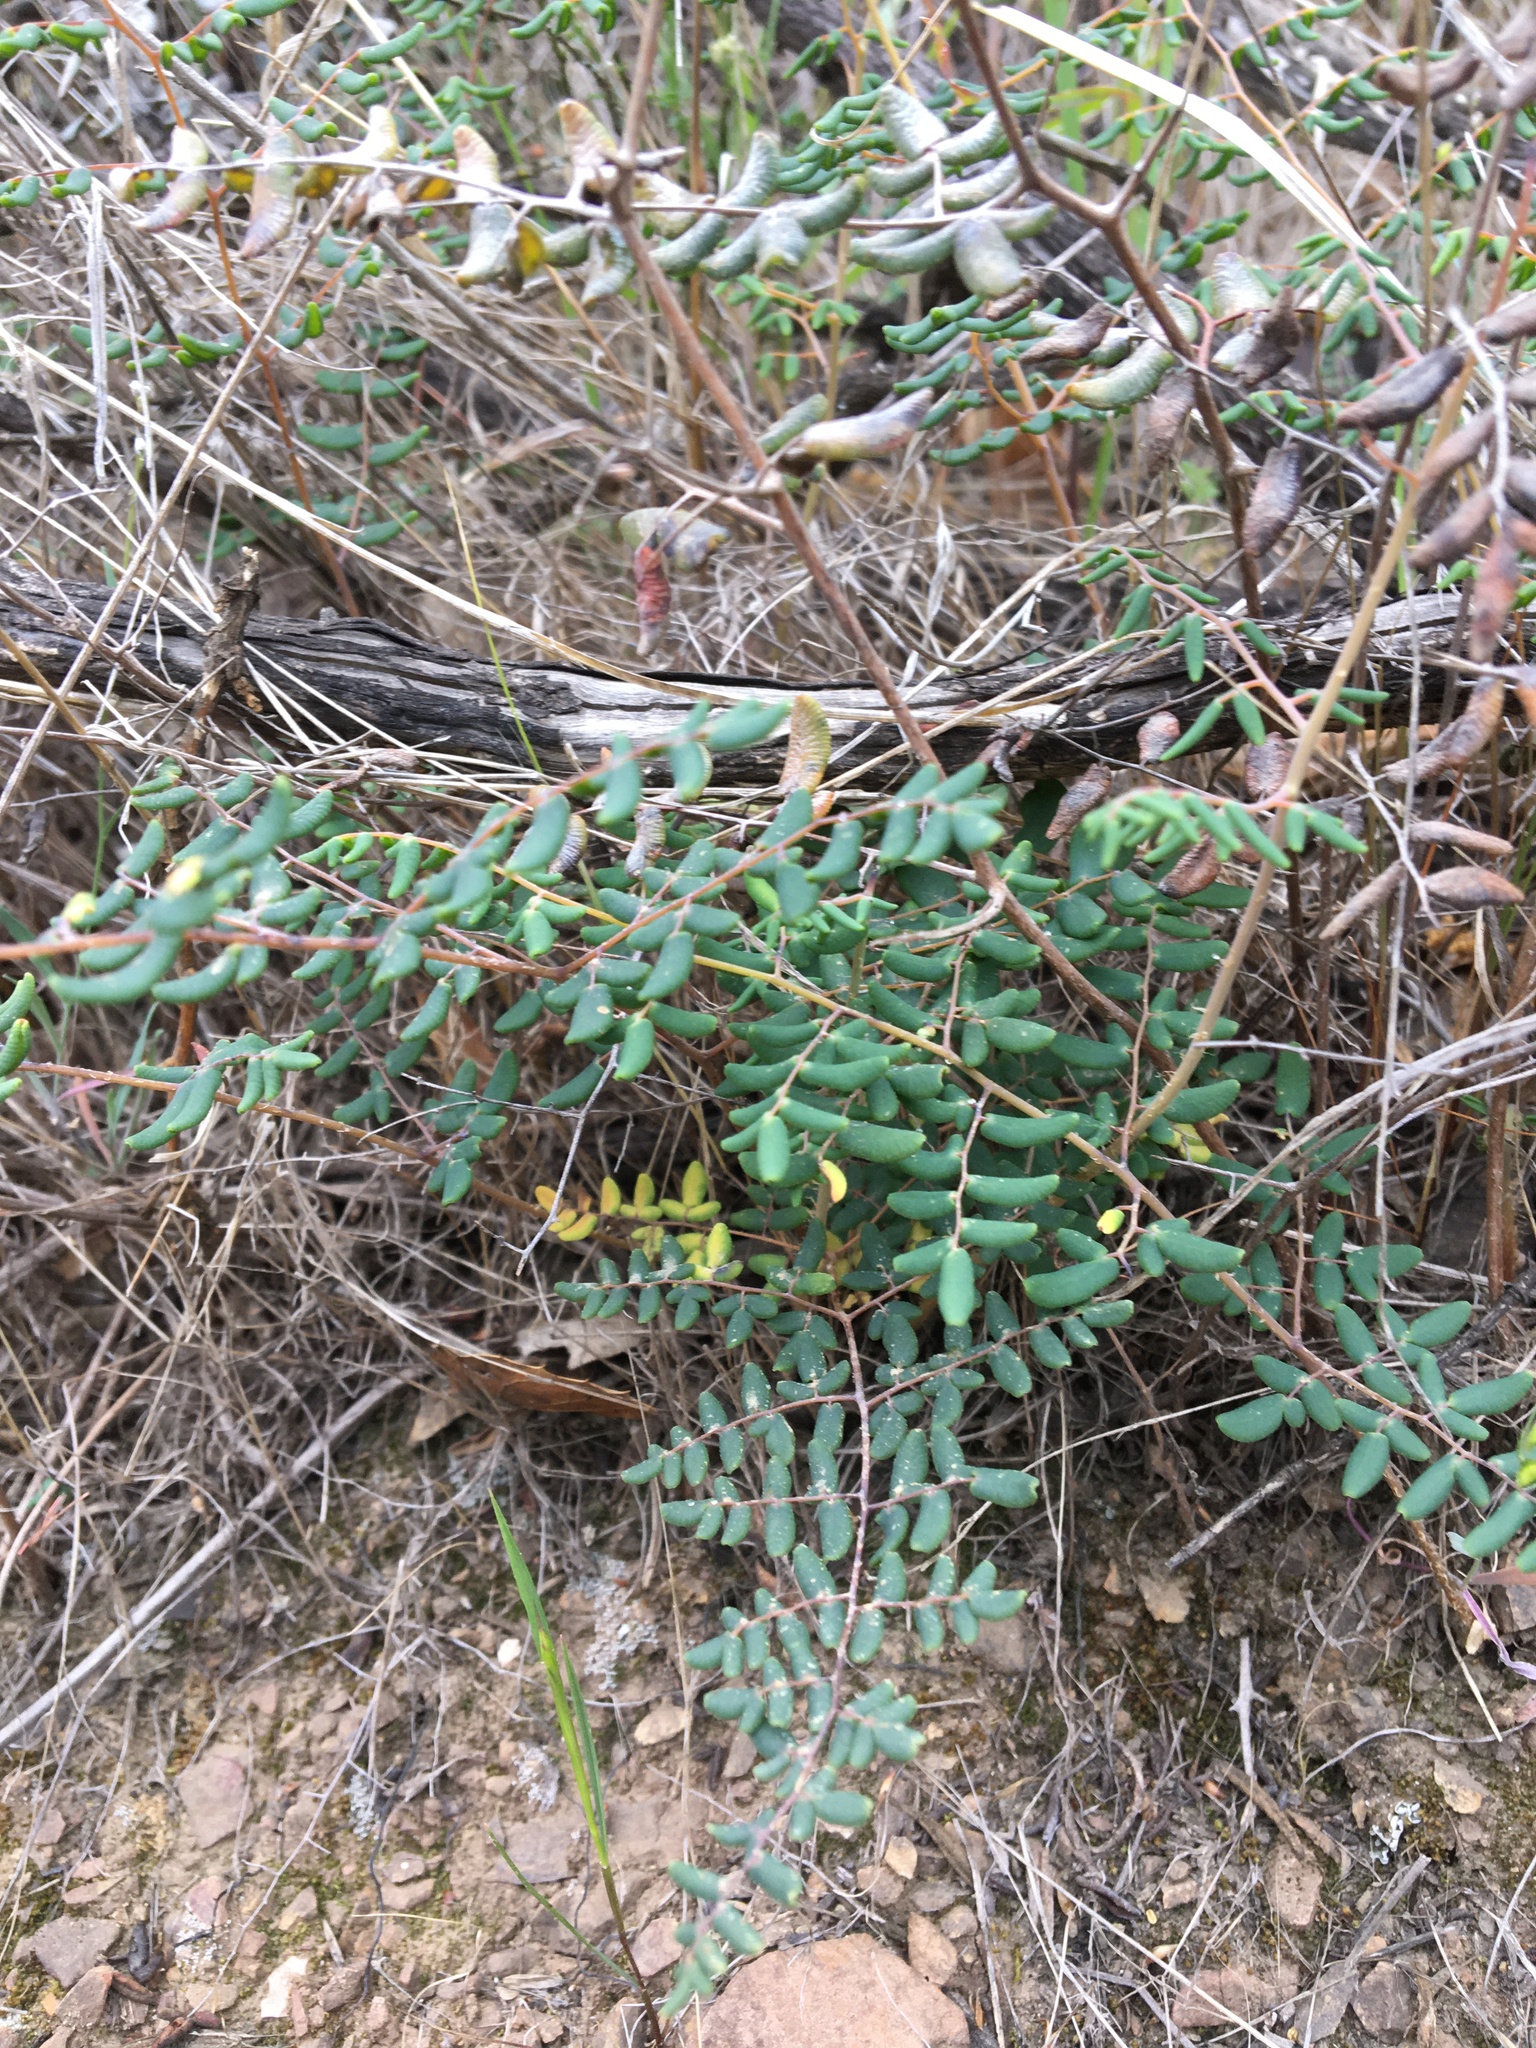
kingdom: Plantae
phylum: Tracheophyta
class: Polypodiopsida
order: Polypodiales
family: Pteridaceae
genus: Pellaea
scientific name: Pellaea andromedifolia
